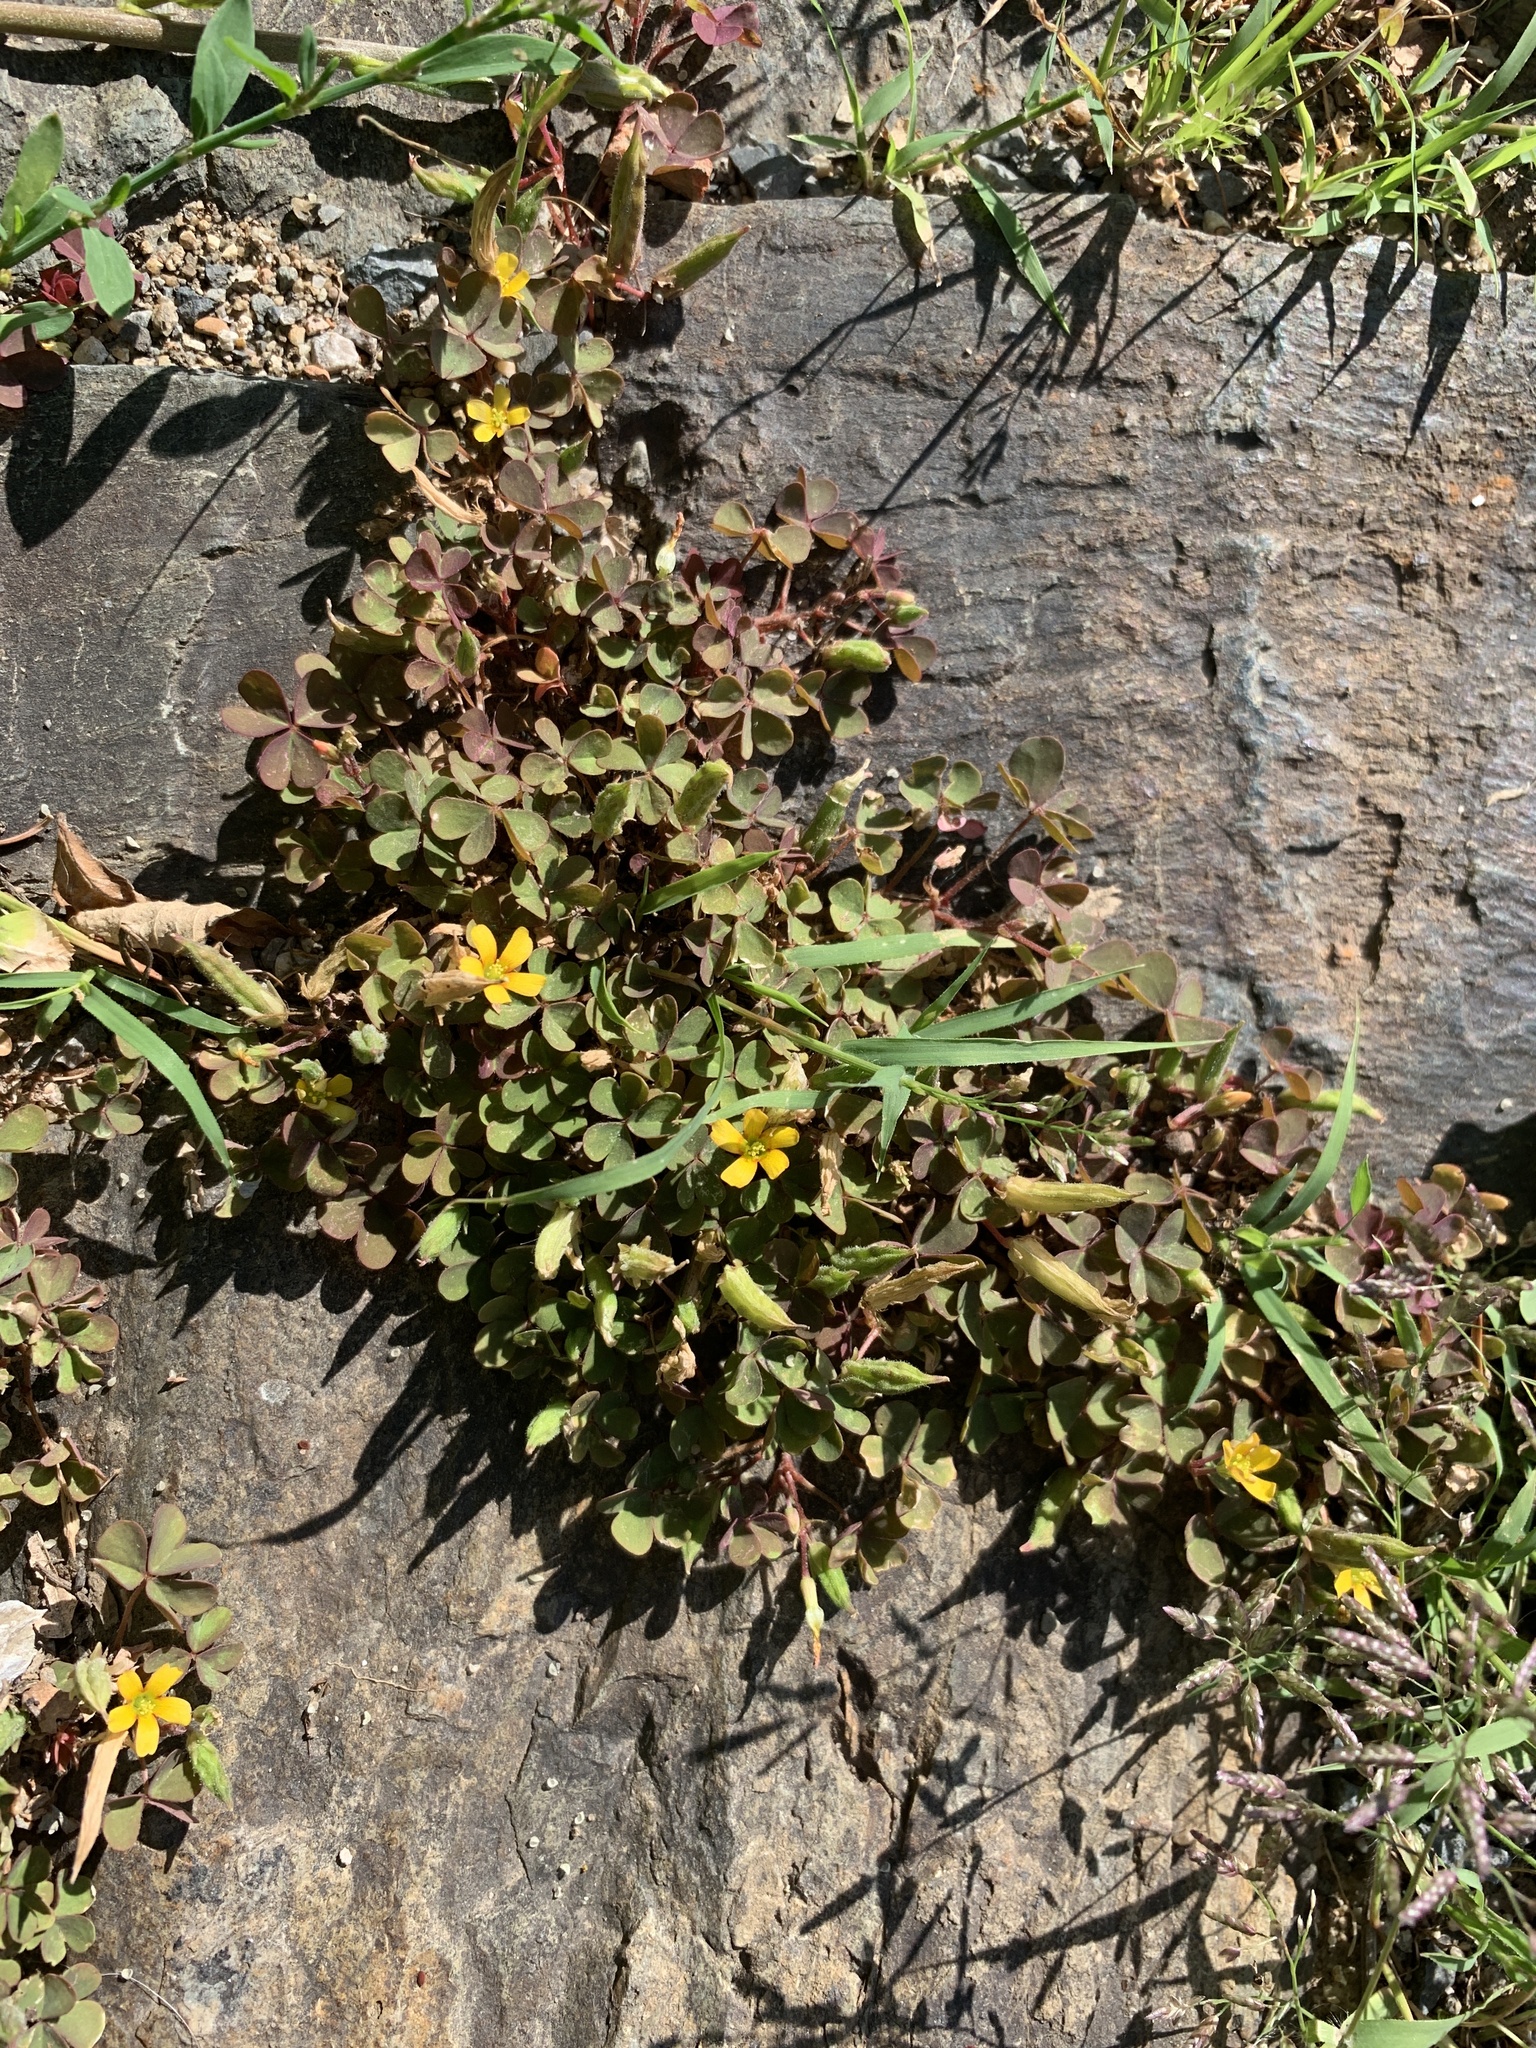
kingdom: Plantae
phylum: Tracheophyta
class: Magnoliopsida
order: Oxalidales
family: Oxalidaceae
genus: Oxalis
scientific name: Oxalis corniculata
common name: Procumbent yellow-sorrel
